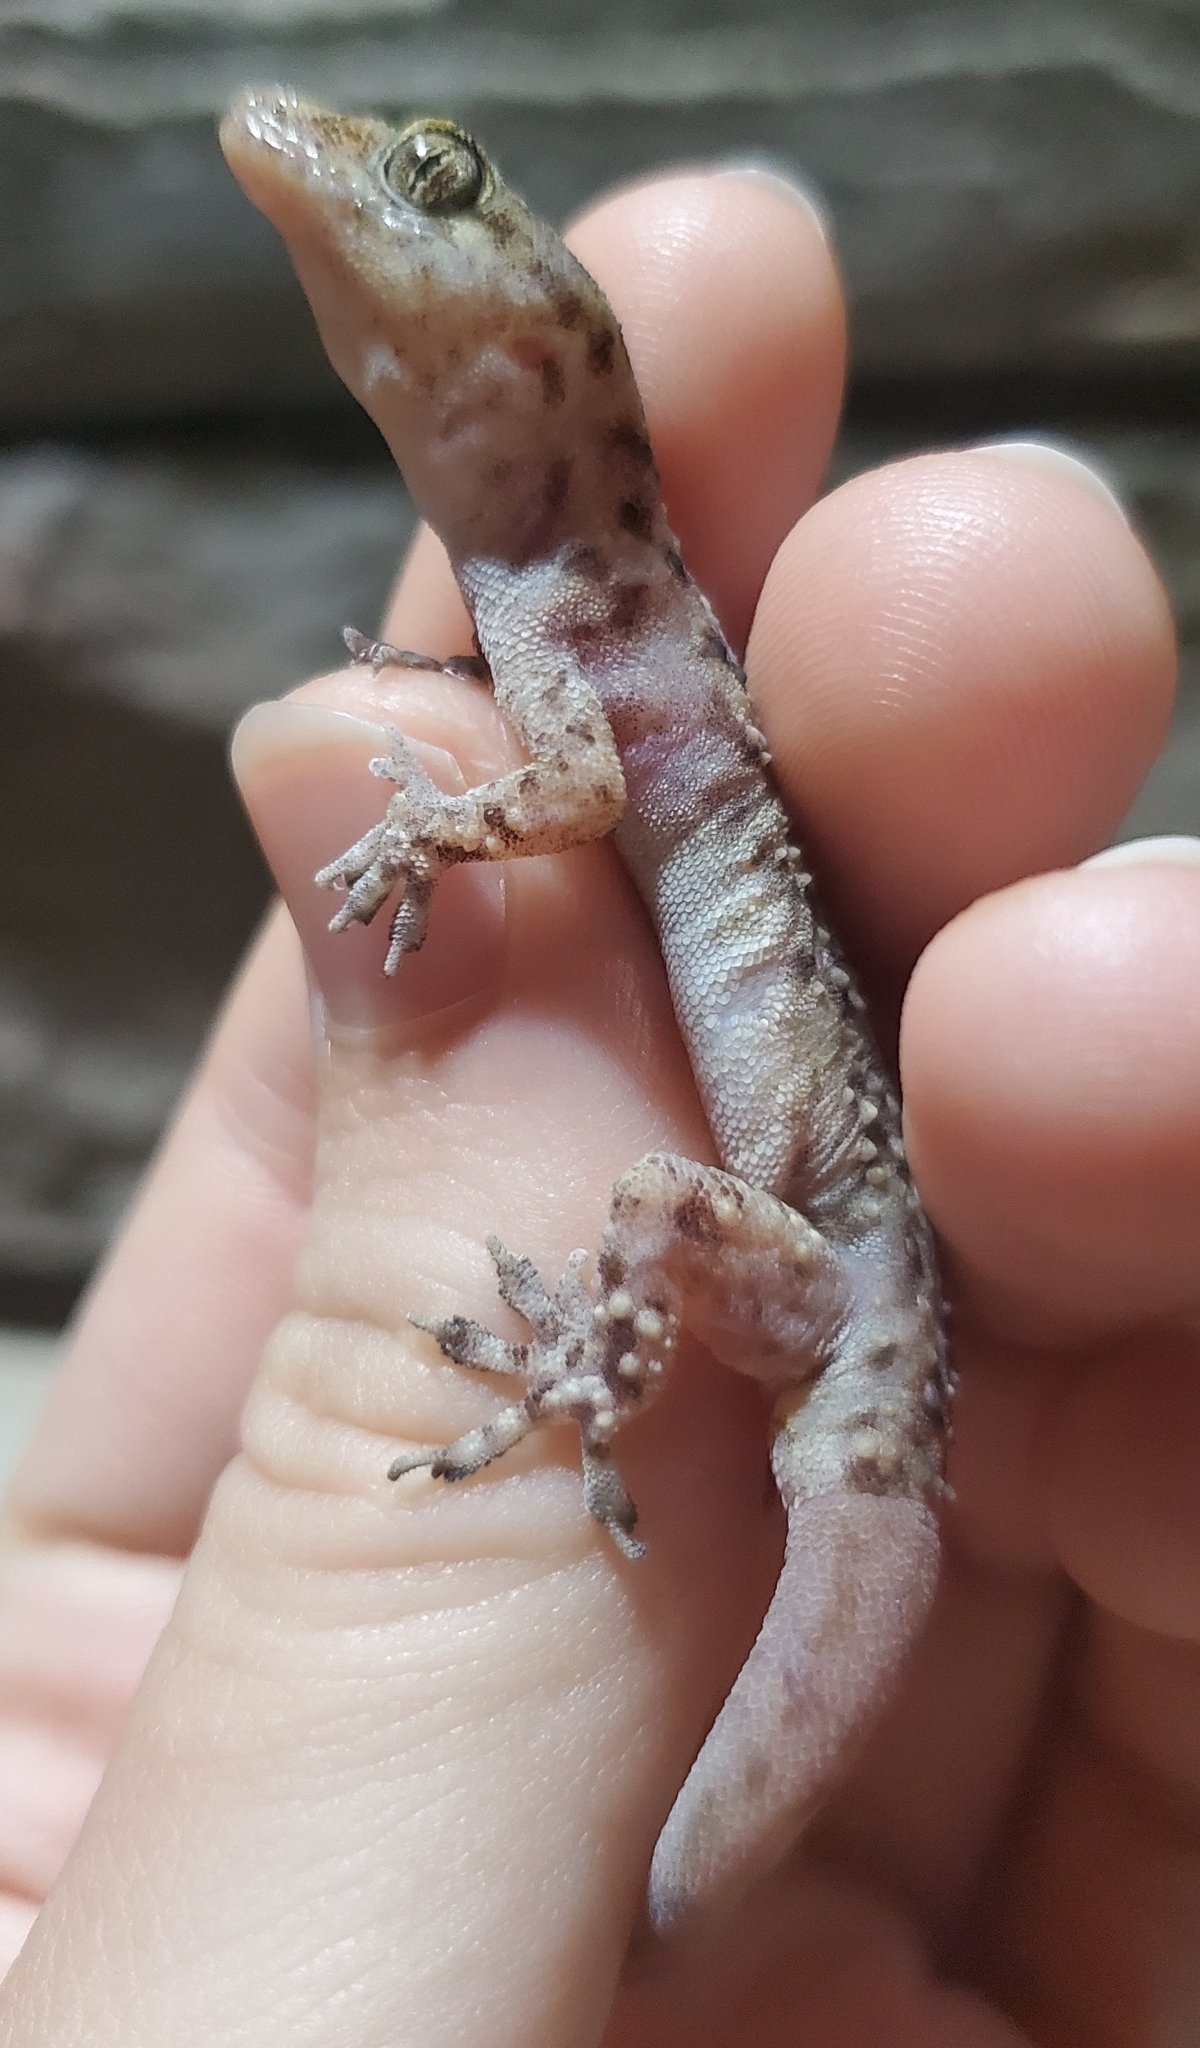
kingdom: Animalia
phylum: Chordata
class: Squamata
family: Gekkonidae
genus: Hemidactylus
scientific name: Hemidactylus turcicus
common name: Turkish gecko
